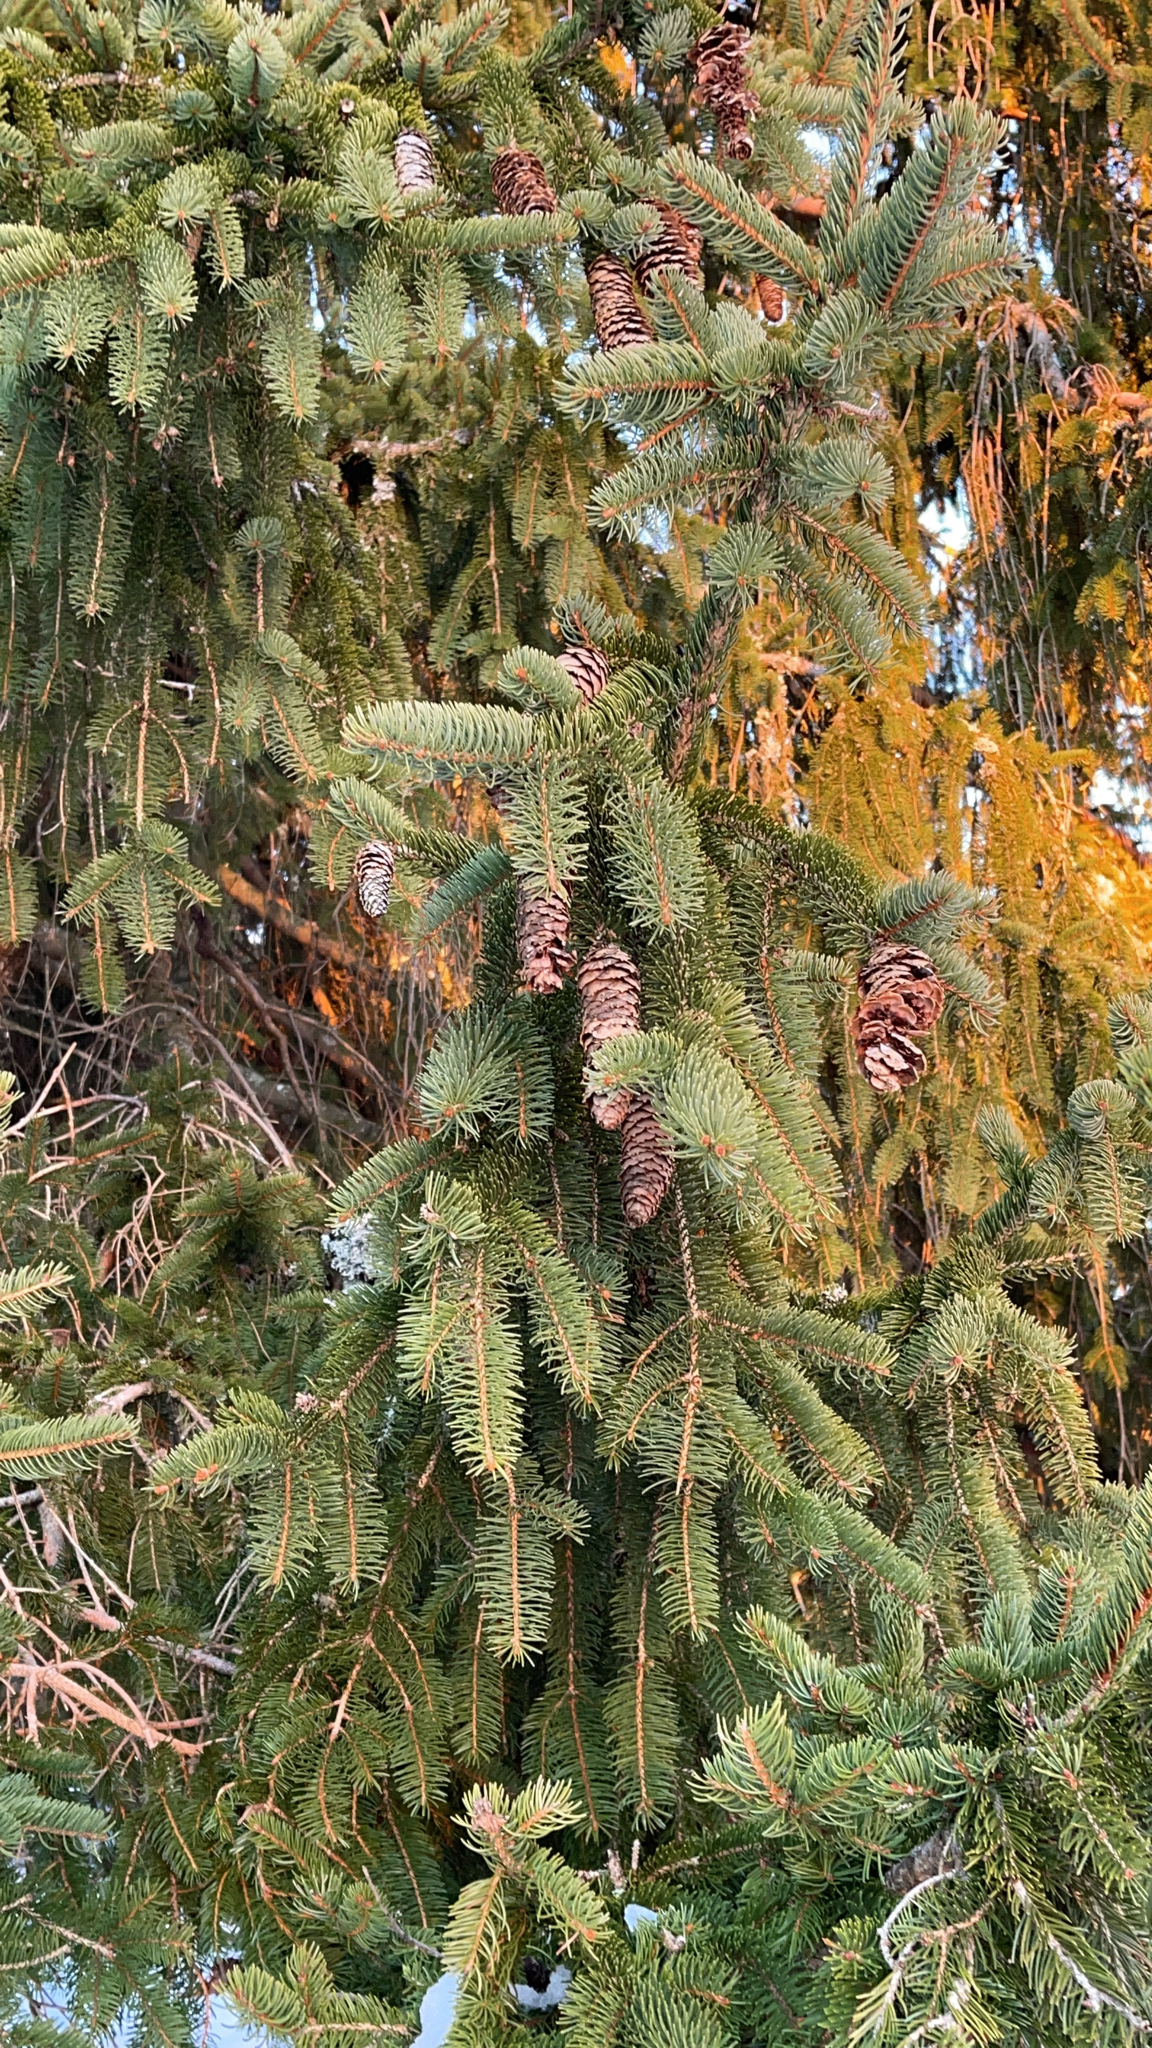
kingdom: Plantae
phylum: Tracheophyta
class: Pinopsida
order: Pinales
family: Pinaceae
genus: Picea
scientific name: Picea abies
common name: Norway spruce
